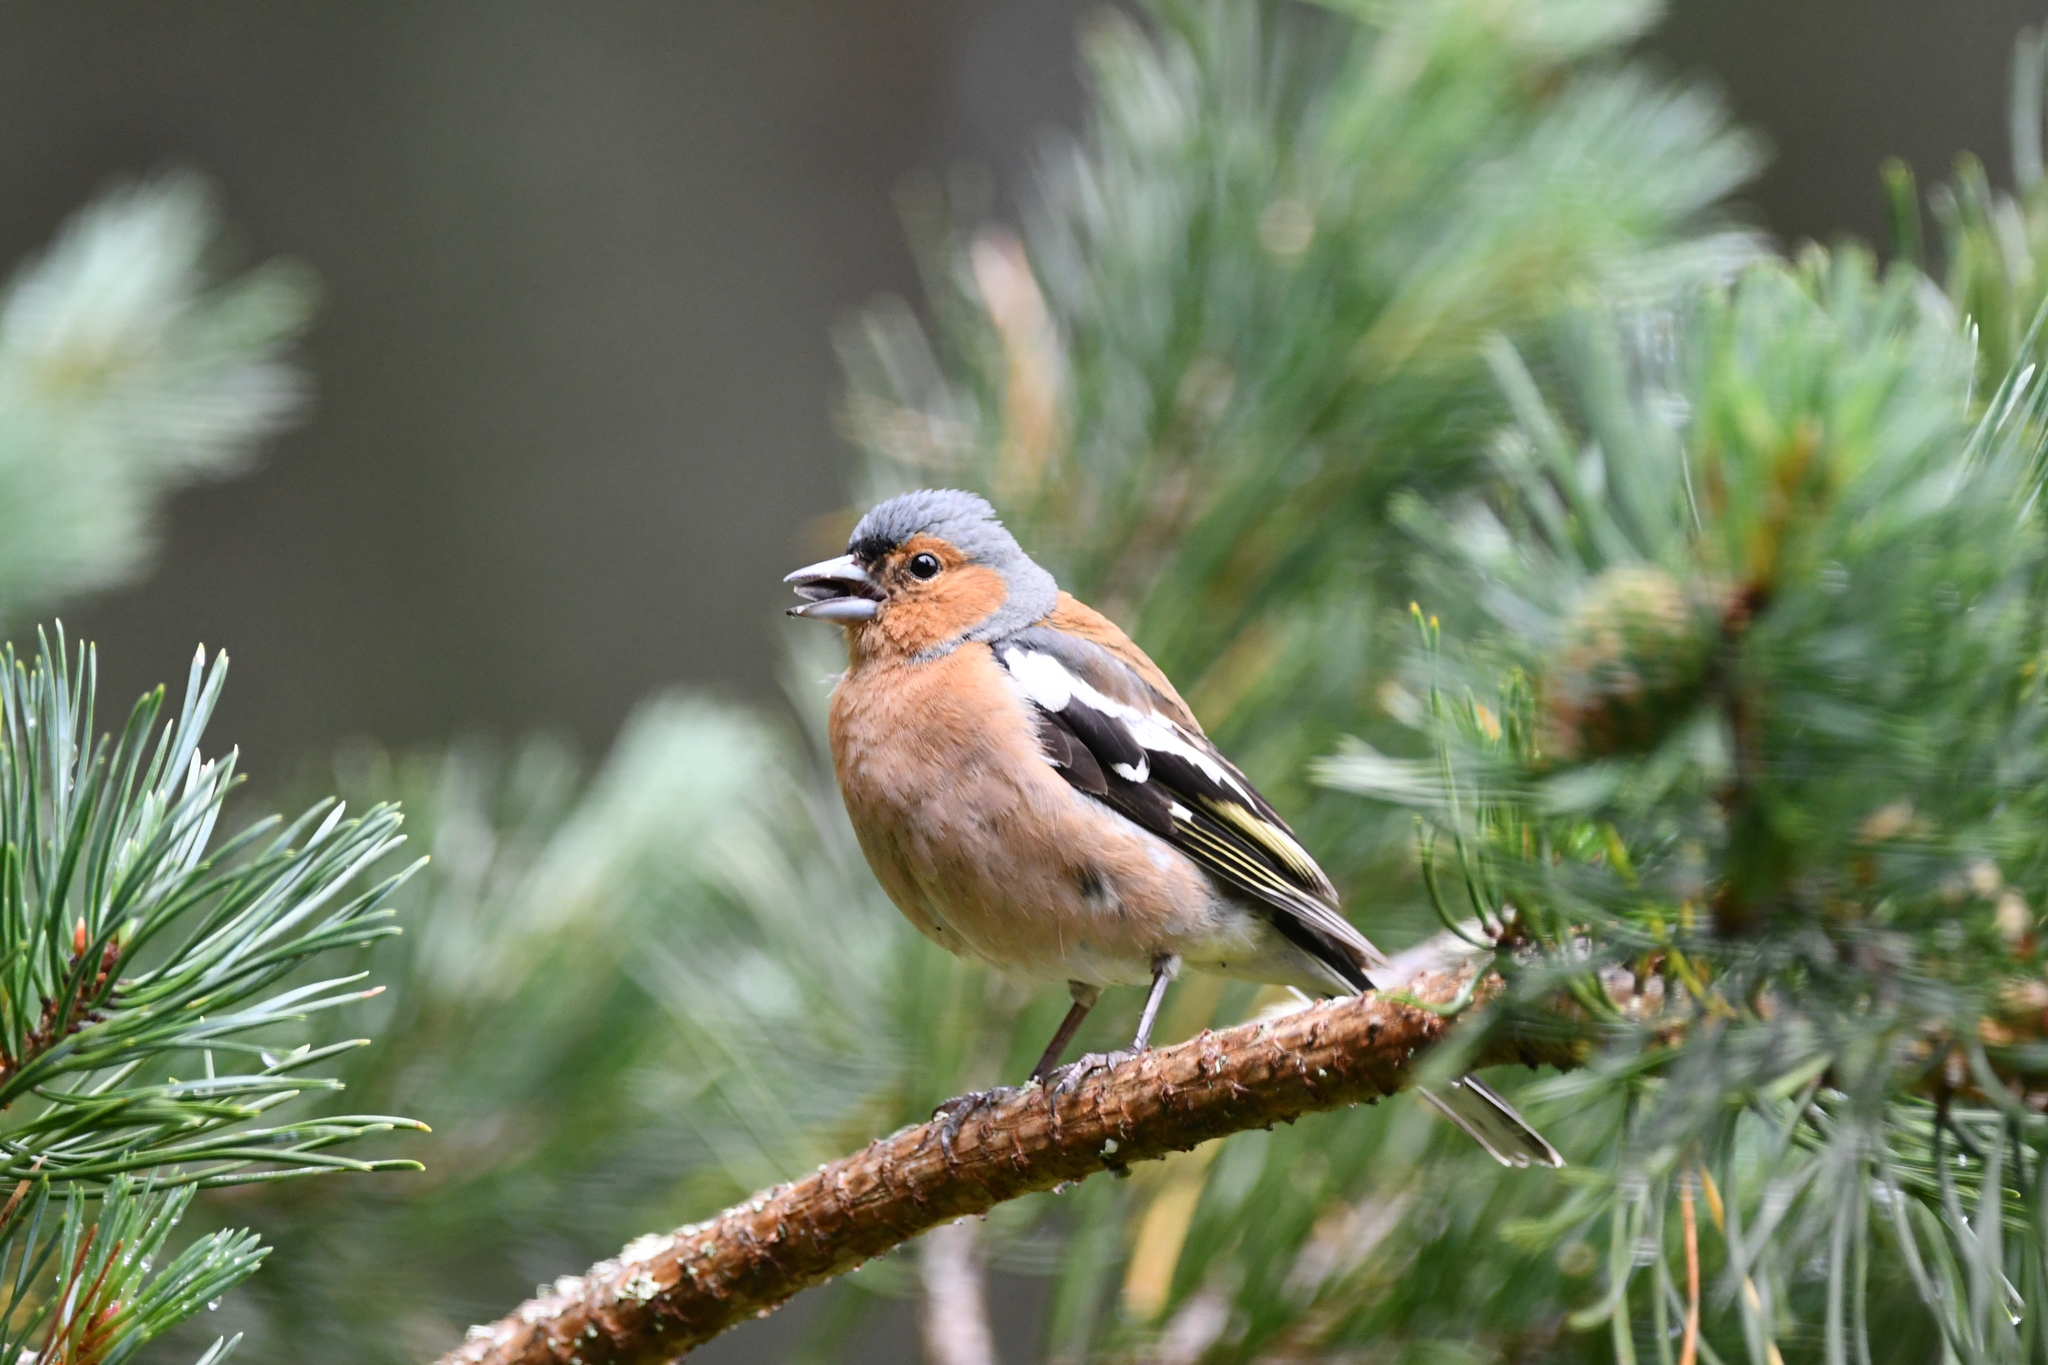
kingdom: Animalia
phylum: Chordata
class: Aves
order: Passeriformes
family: Fringillidae
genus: Fringilla
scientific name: Fringilla coelebs
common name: Common chaffinch
